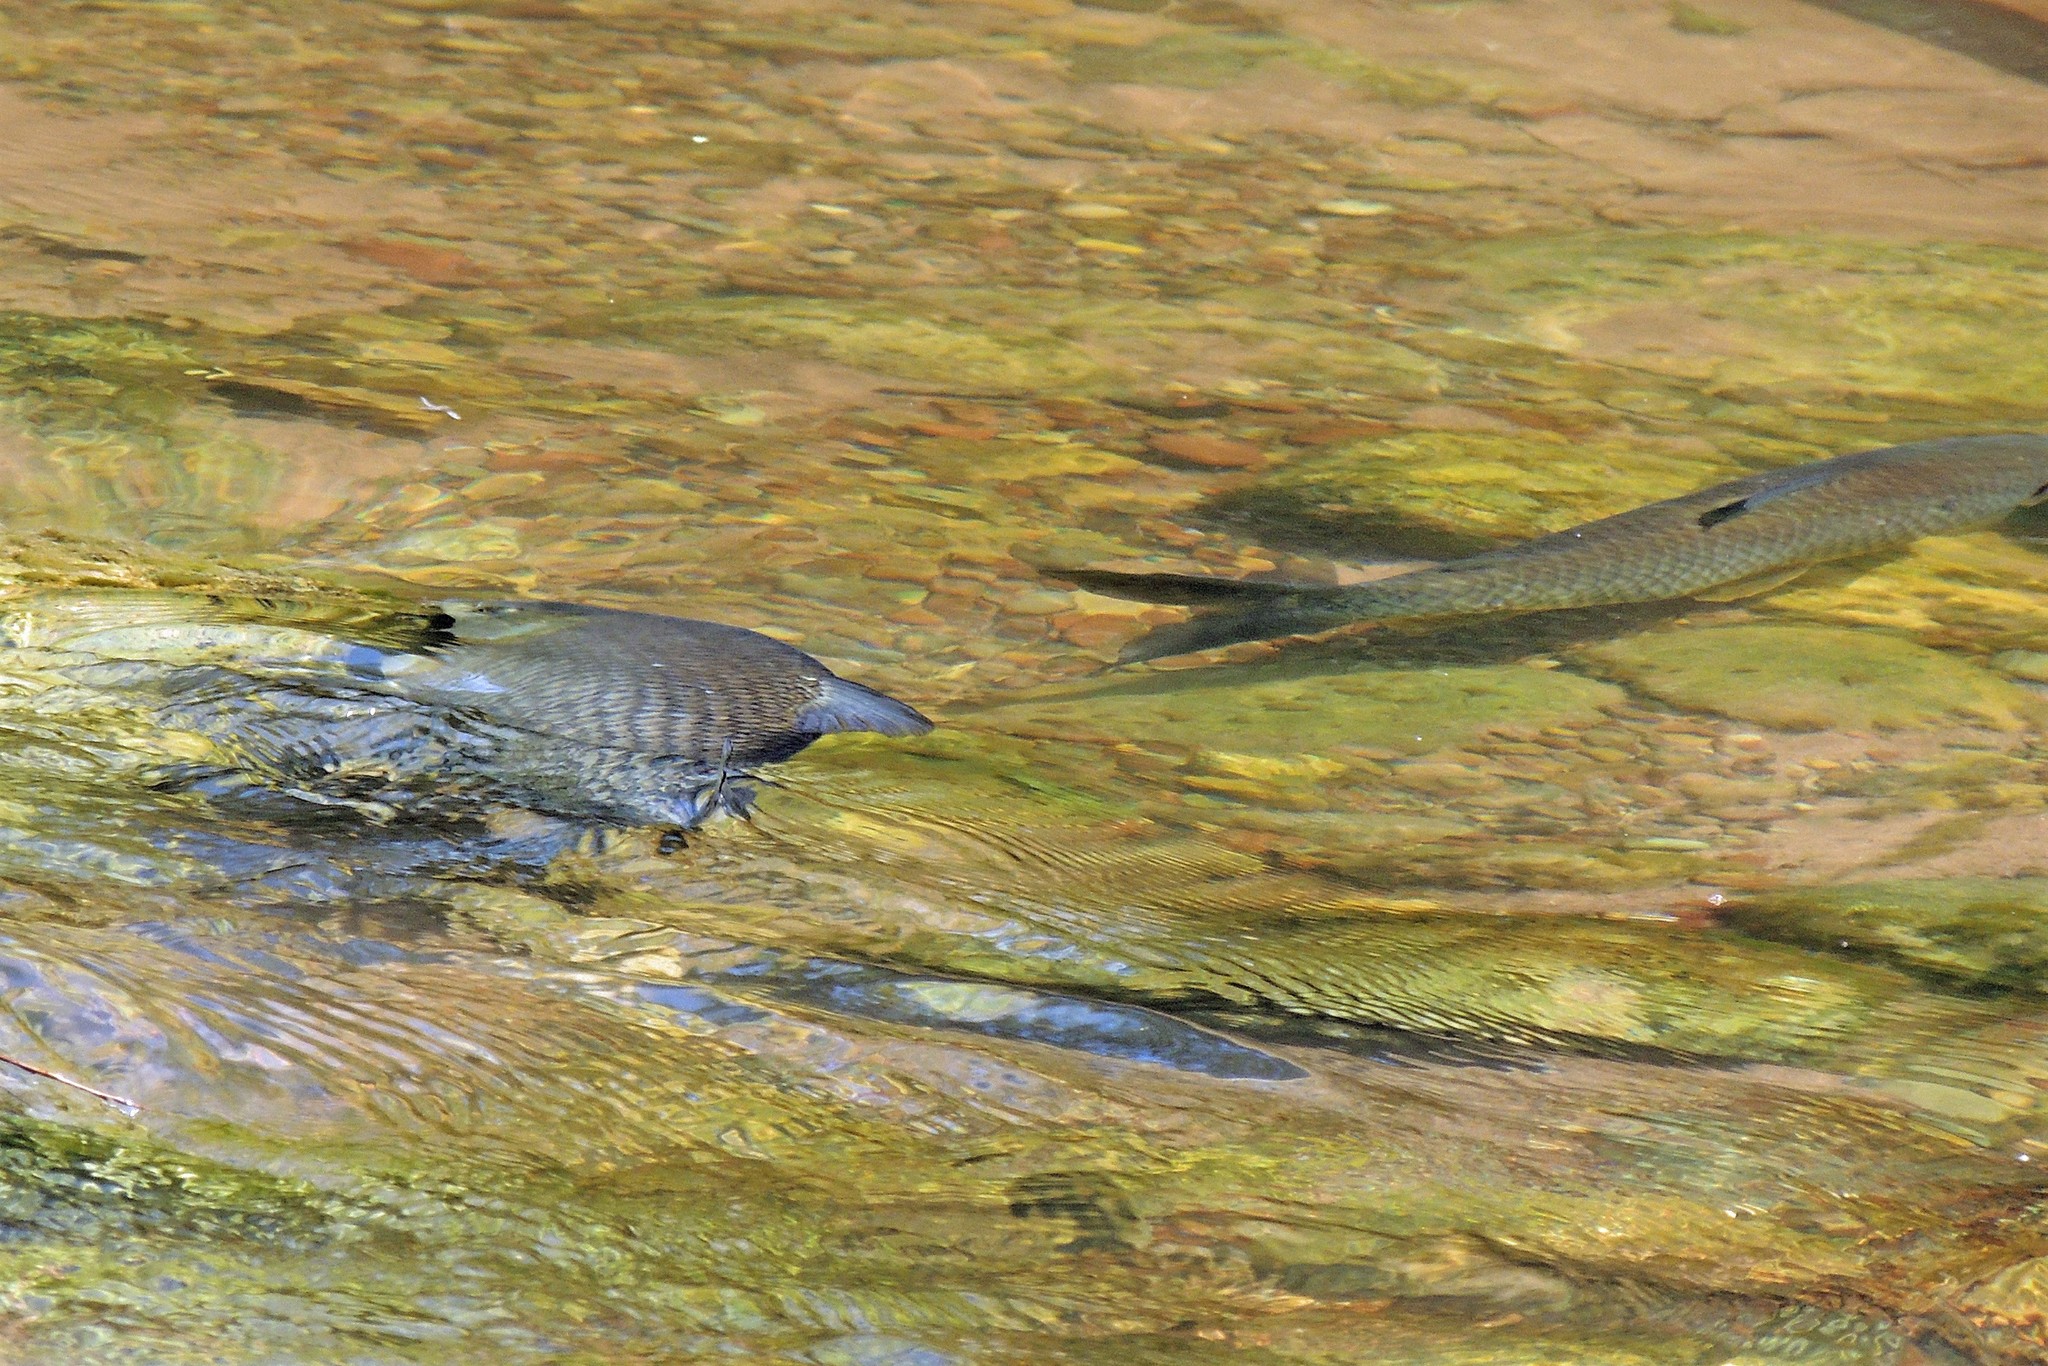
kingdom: Animalia
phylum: Chordata
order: Characiformes
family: Prochilodontidae
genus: Prochilodus
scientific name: Prochilodus lineatus
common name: Curimbata
